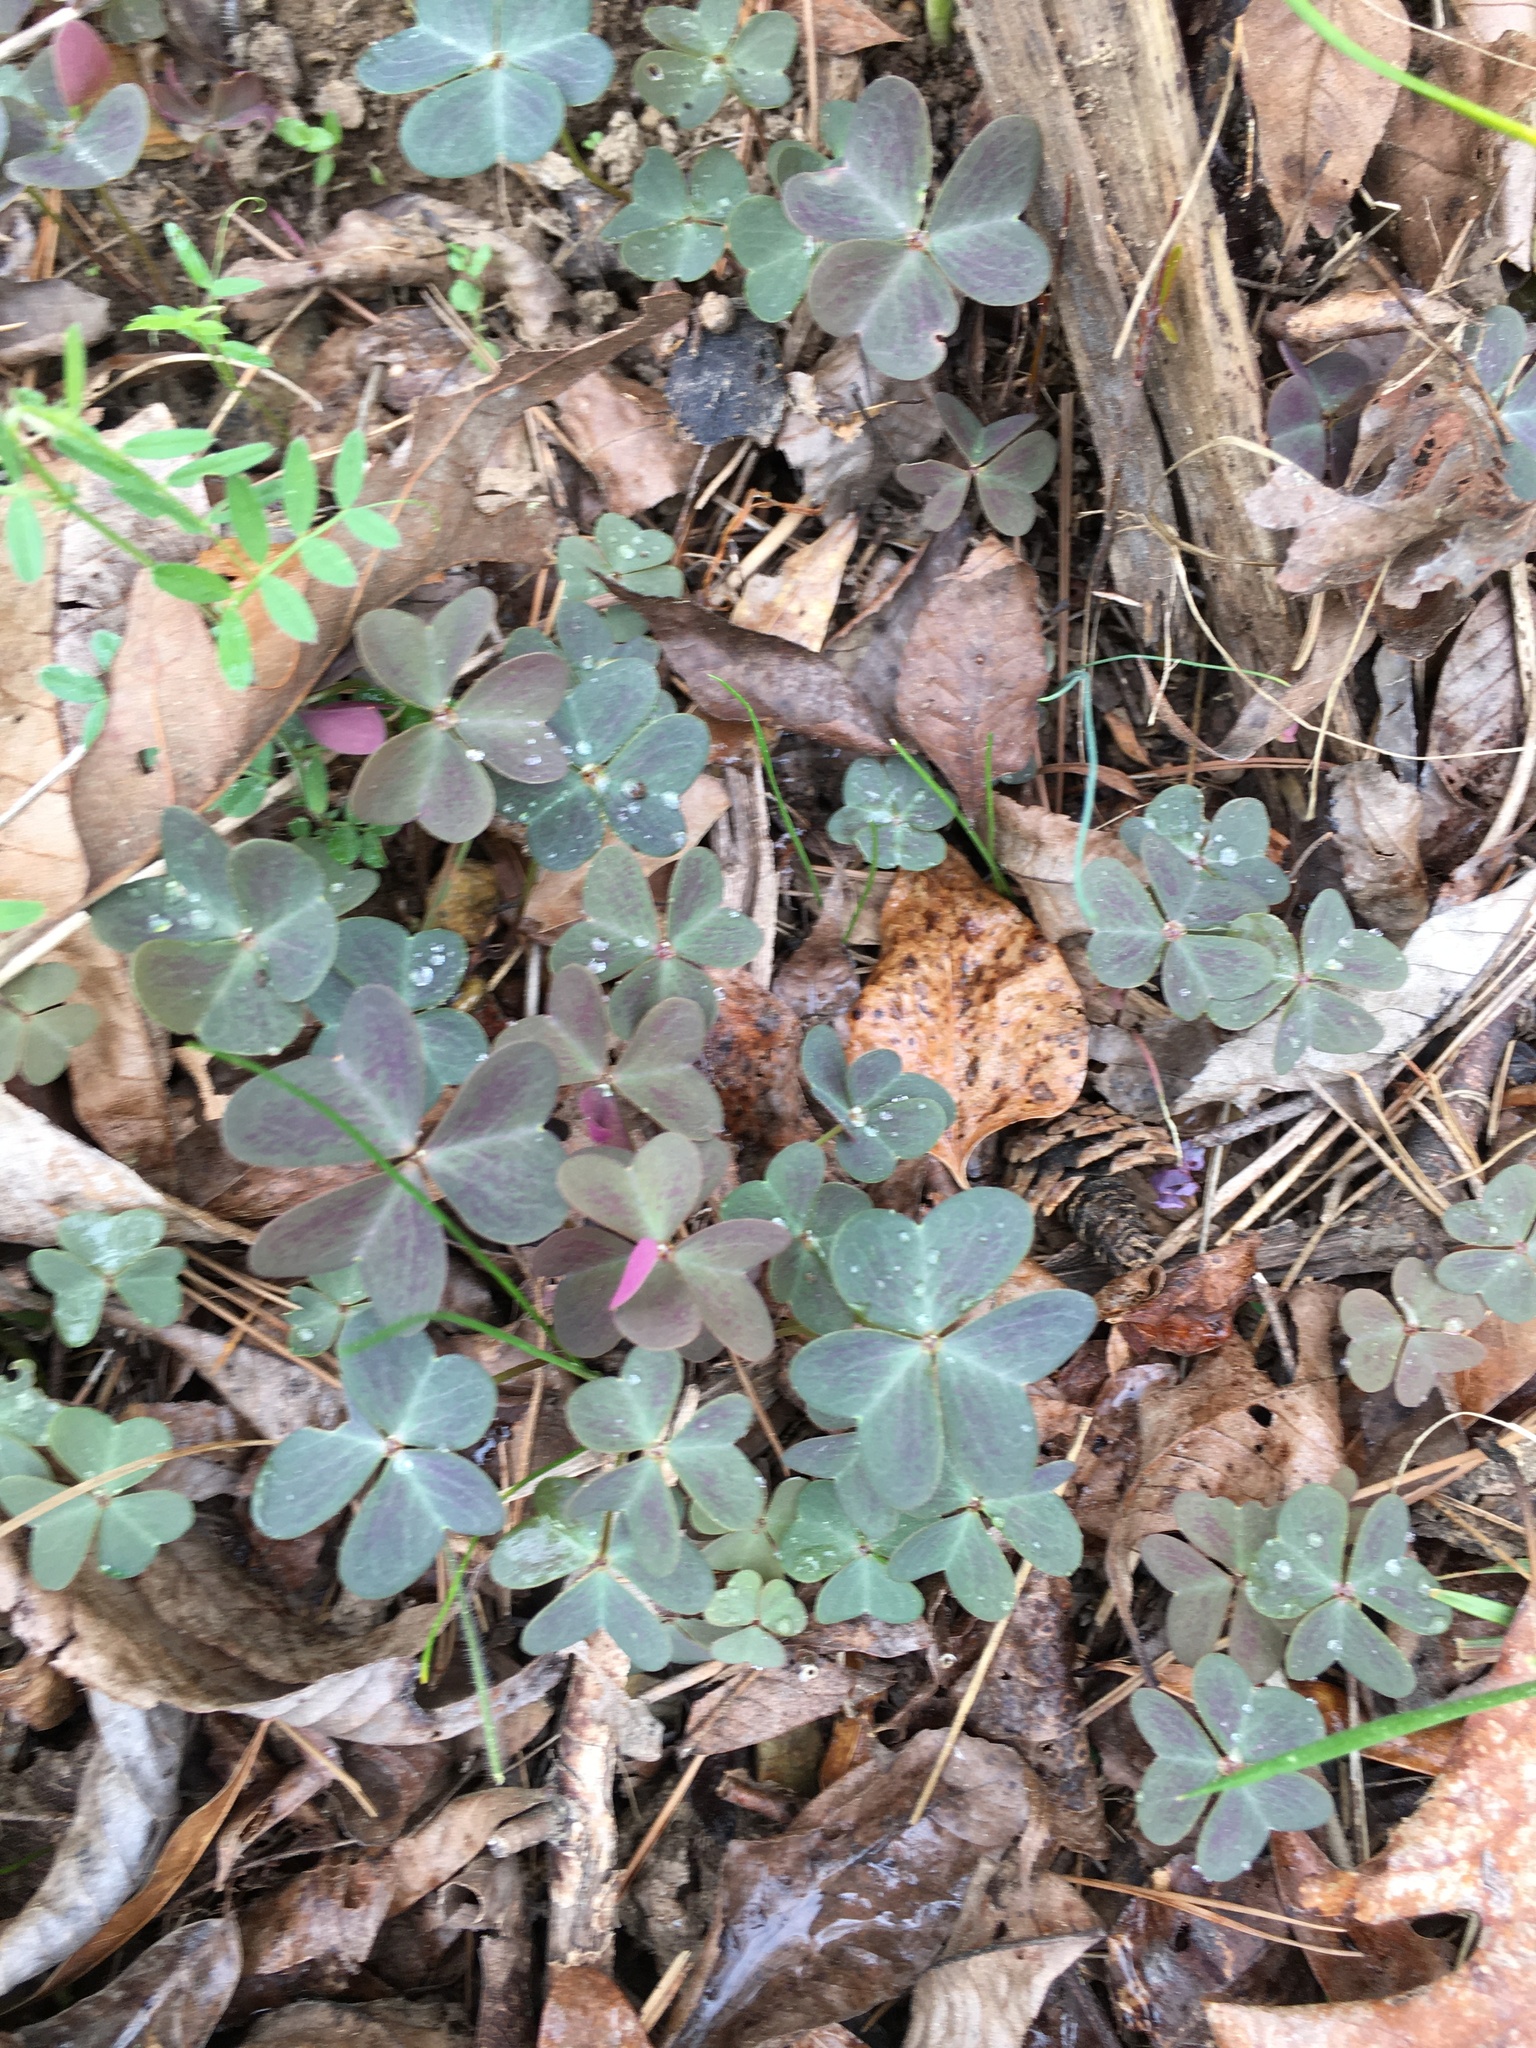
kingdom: Plantae
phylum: Tracheophyta
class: Magnoliopsida
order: Oxalidales
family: Oxalidaceae
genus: Oxalis
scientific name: Oxalis violacea
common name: Violet wood-sorrel
